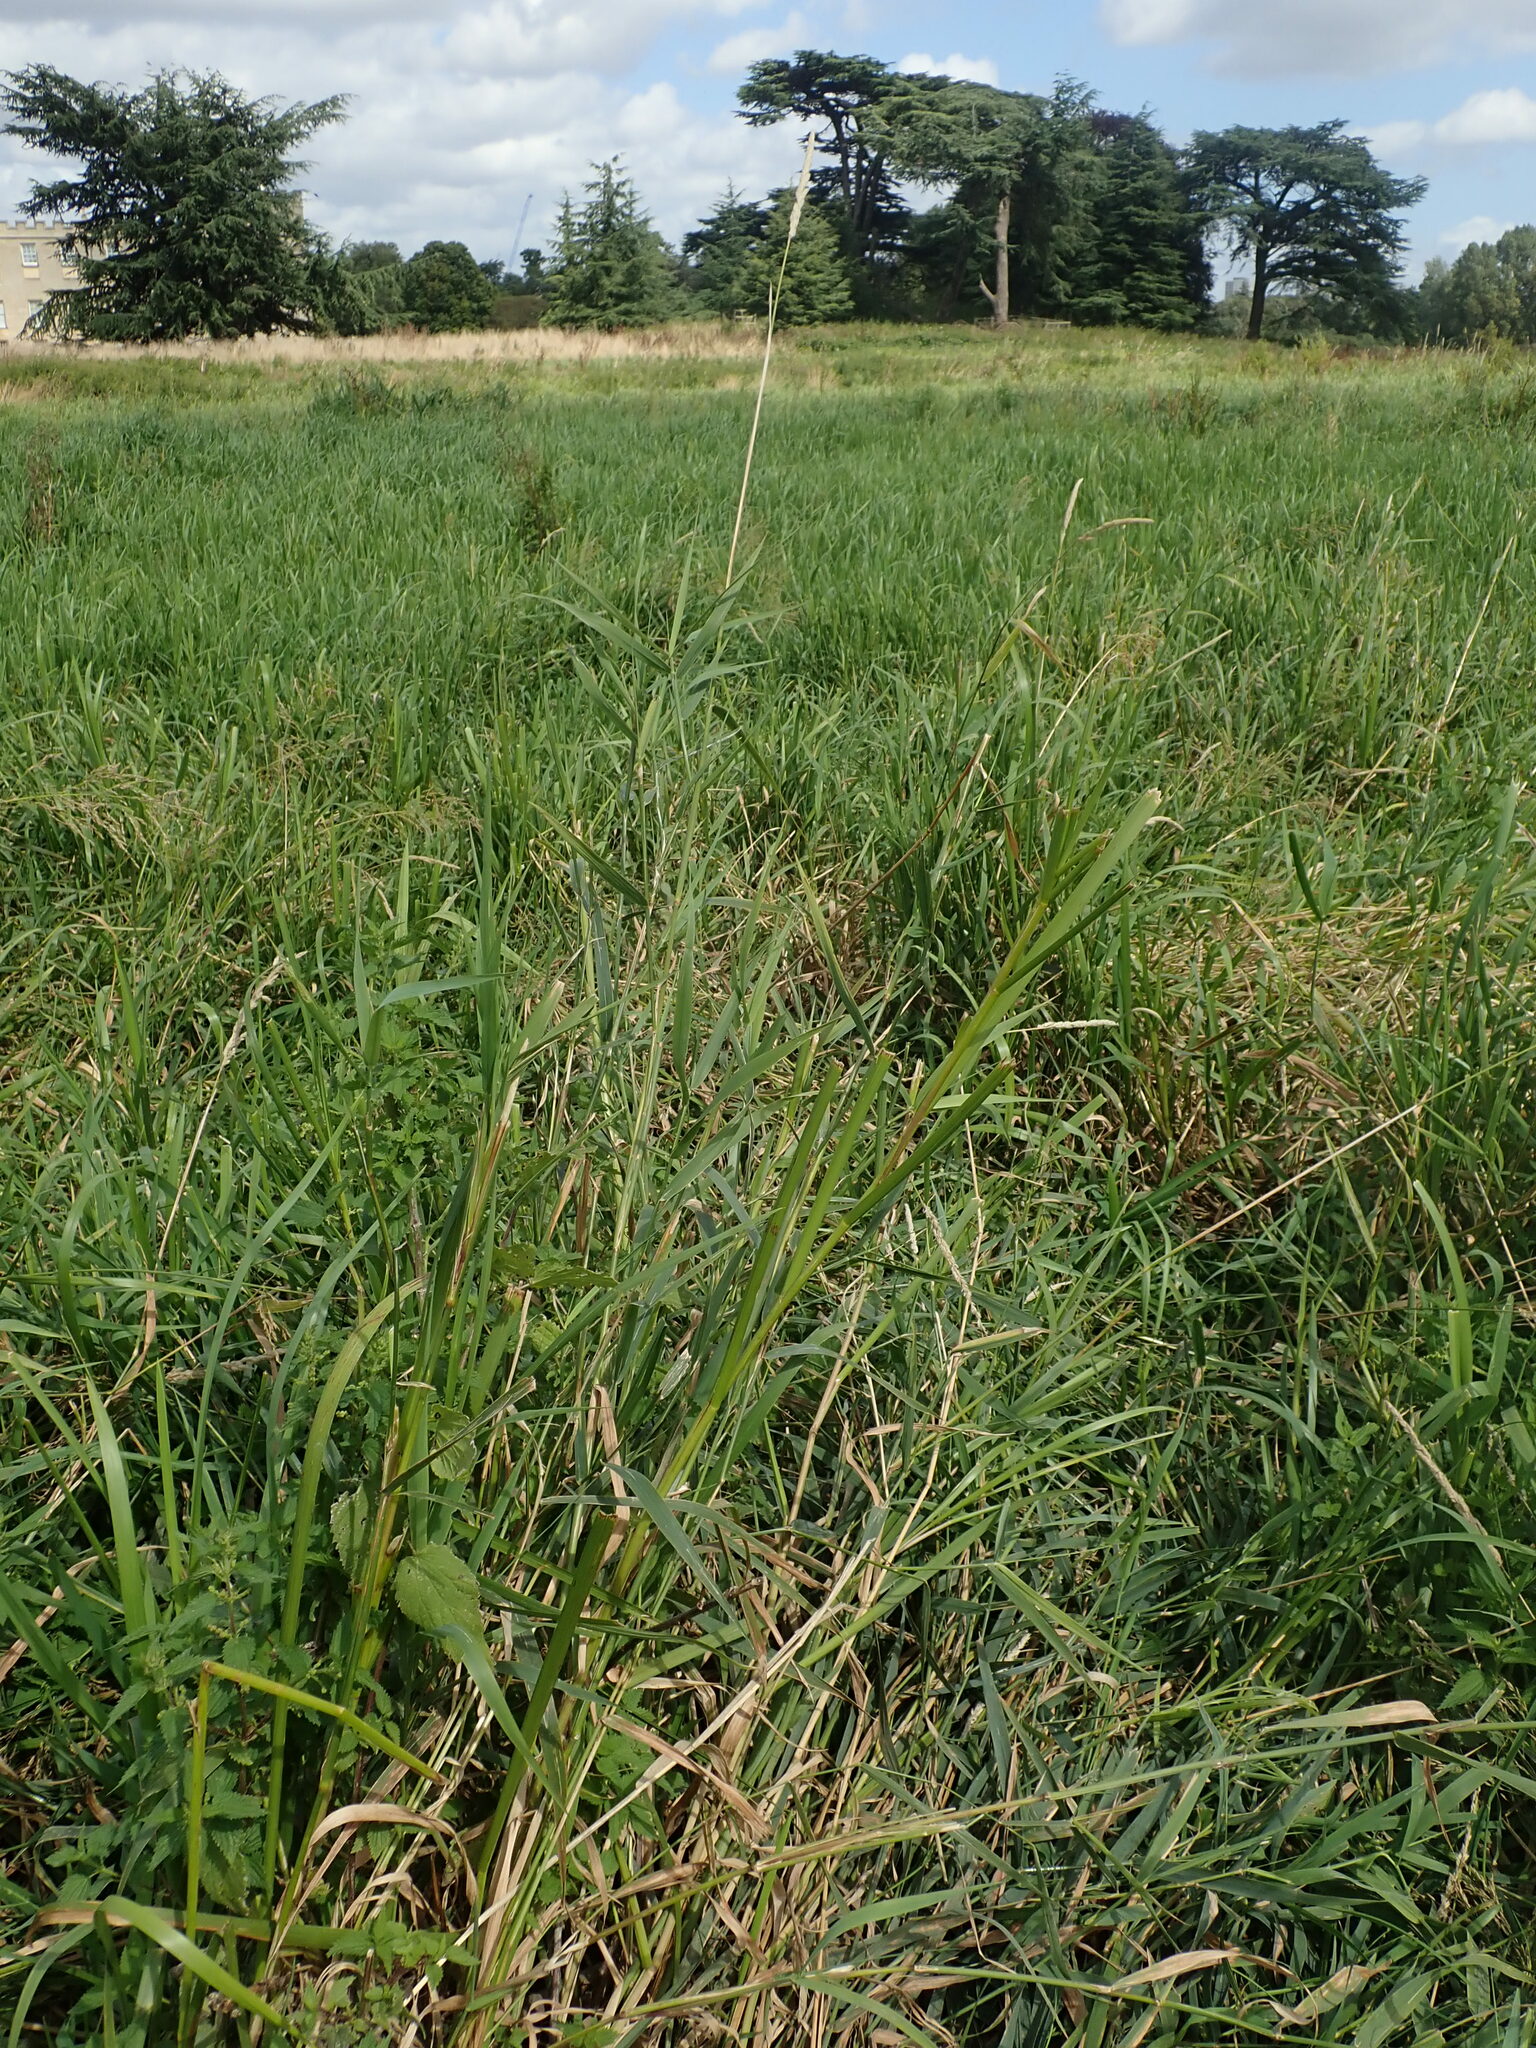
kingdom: Plantae
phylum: Tracheophyta
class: Liliopsida
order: Poales
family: Poaceae
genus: Phalaris
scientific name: Phalaris arundinacea
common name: Reed canary-grass
